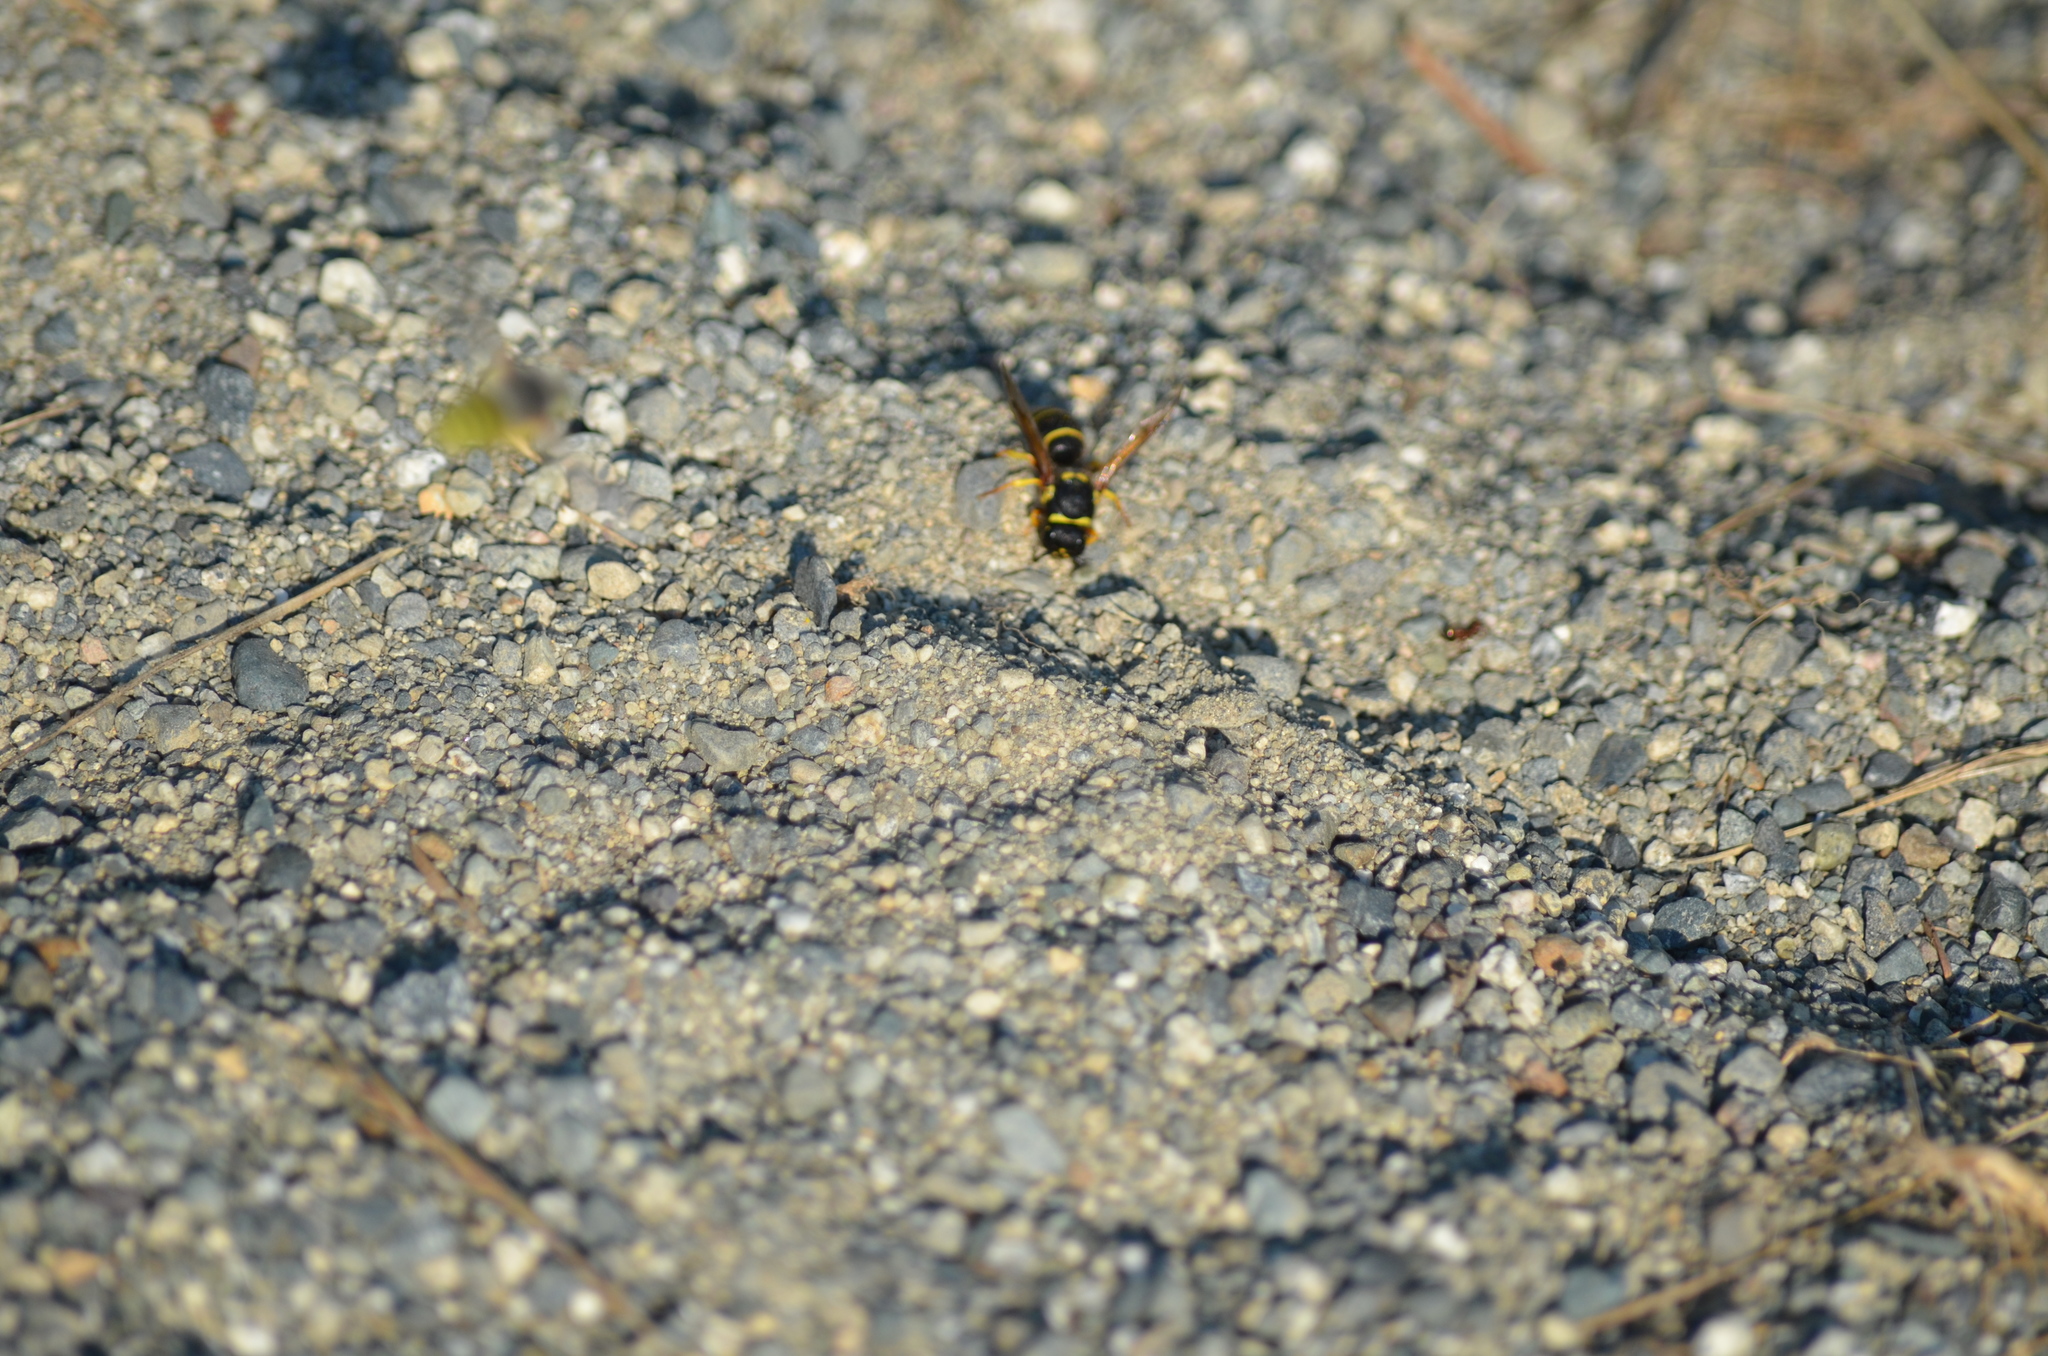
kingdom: Animalia
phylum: Arthropoda
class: Insecta
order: Hymenoptera
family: Vespidae
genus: Ancistrocerus
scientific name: Ancistrocerus
